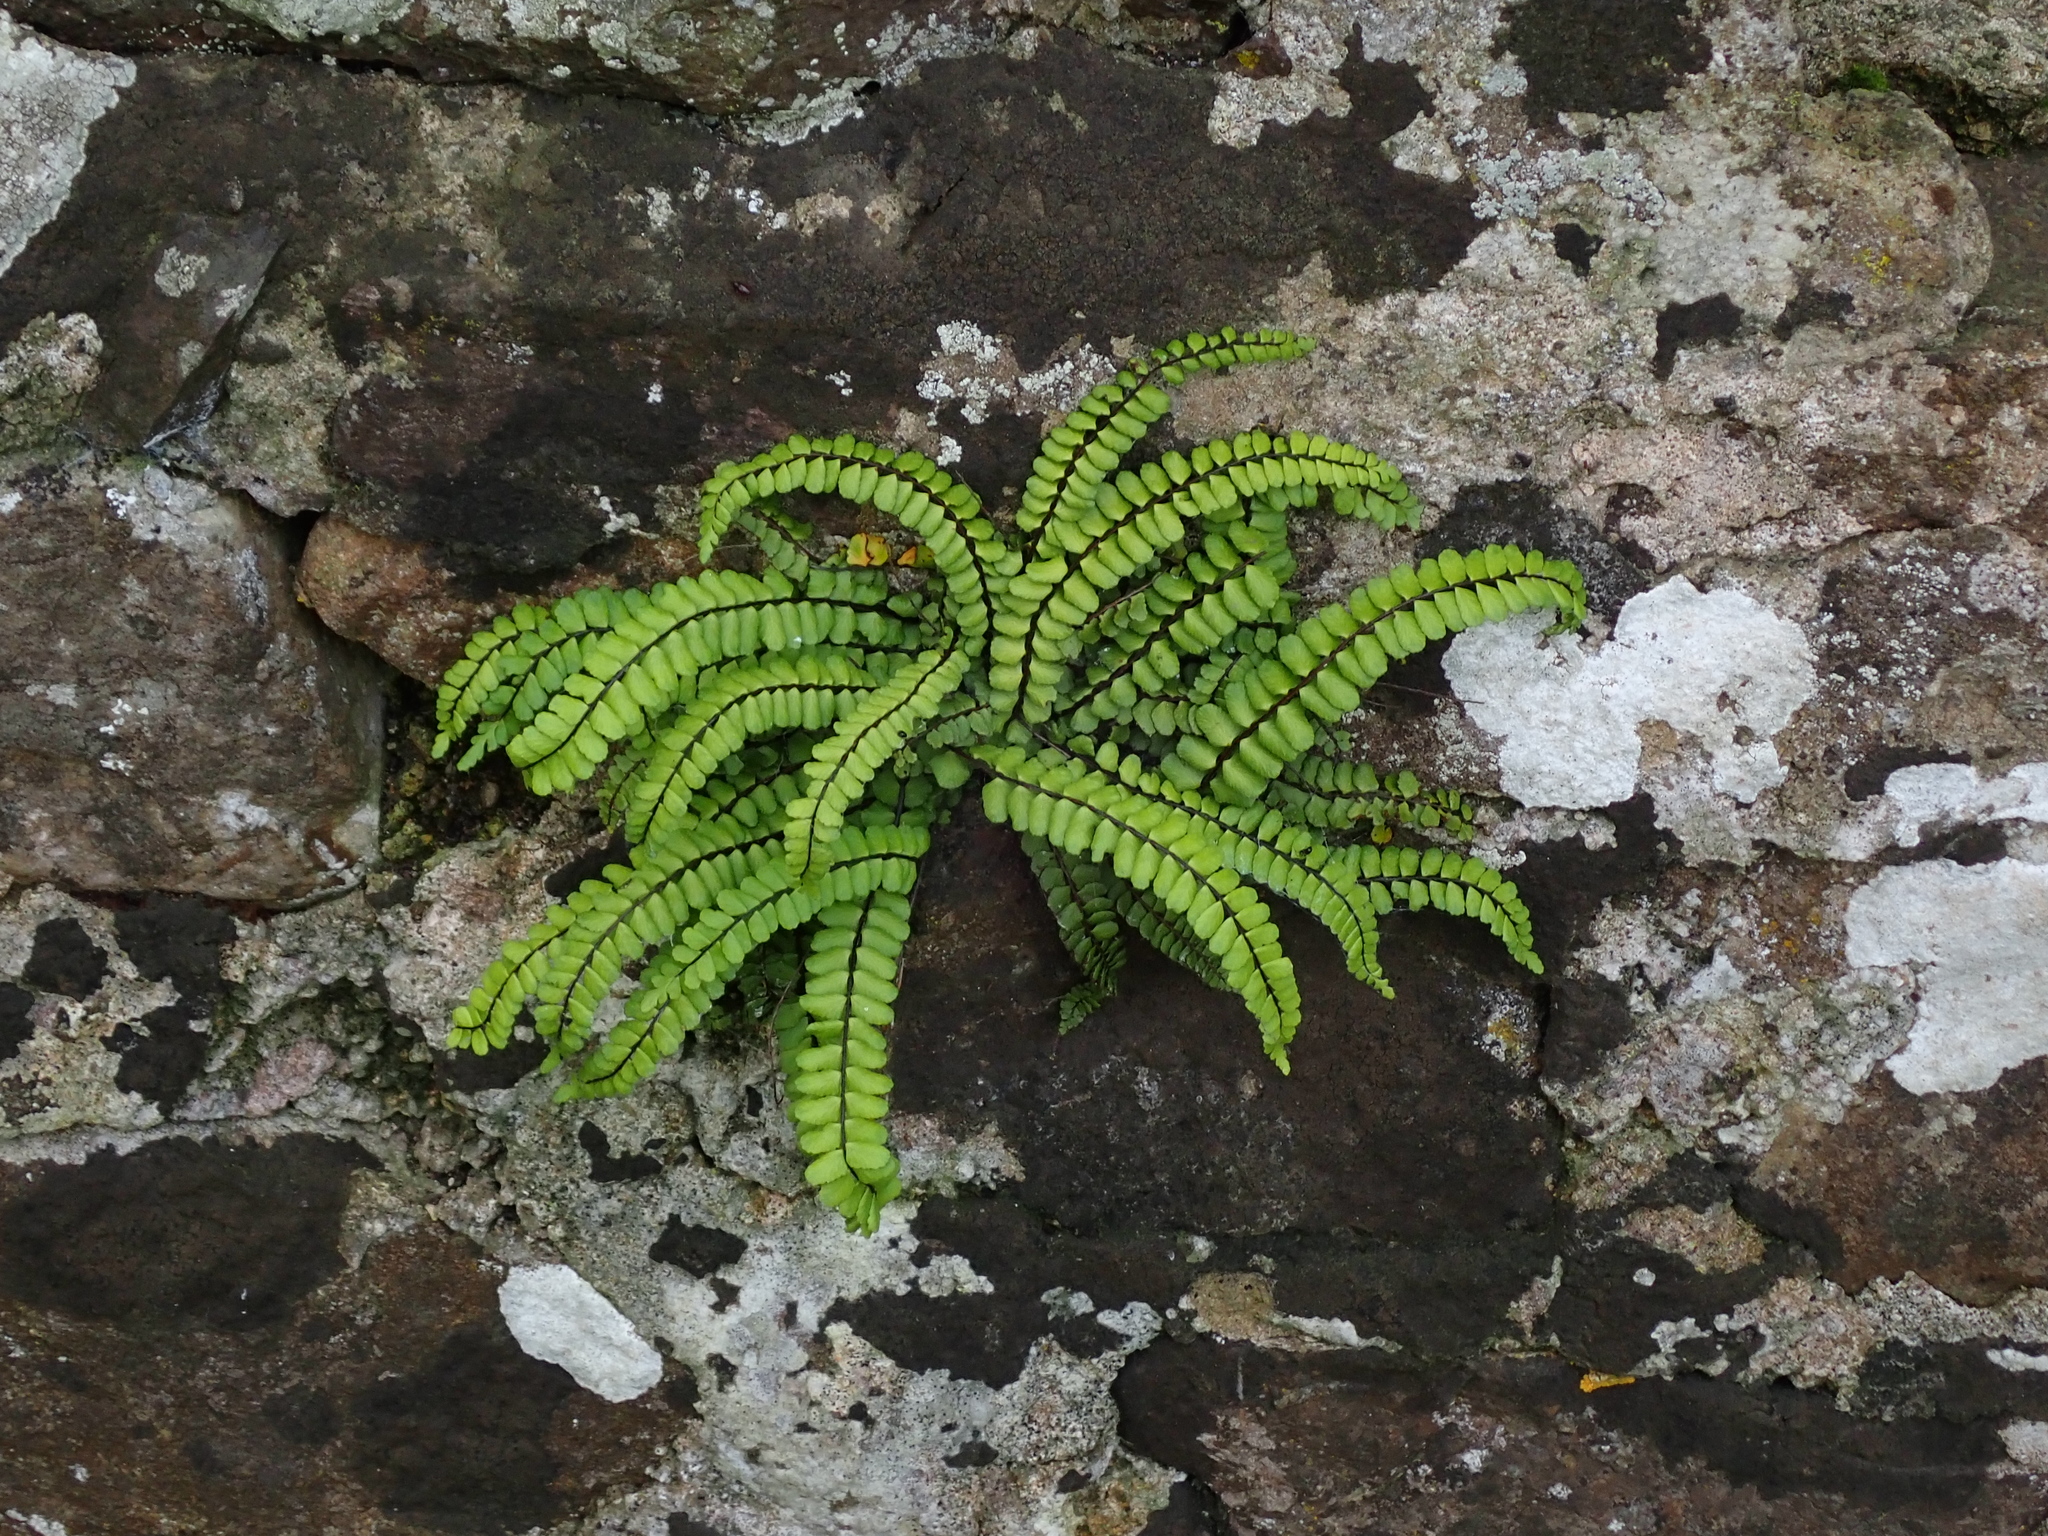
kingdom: Plantae
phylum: Tracheophyta
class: Polypodiopsida
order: Polypodiales
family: Aspleniaceae
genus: Asplenium
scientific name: Asplenium trichomanes
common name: Maidenhair spleenwort
